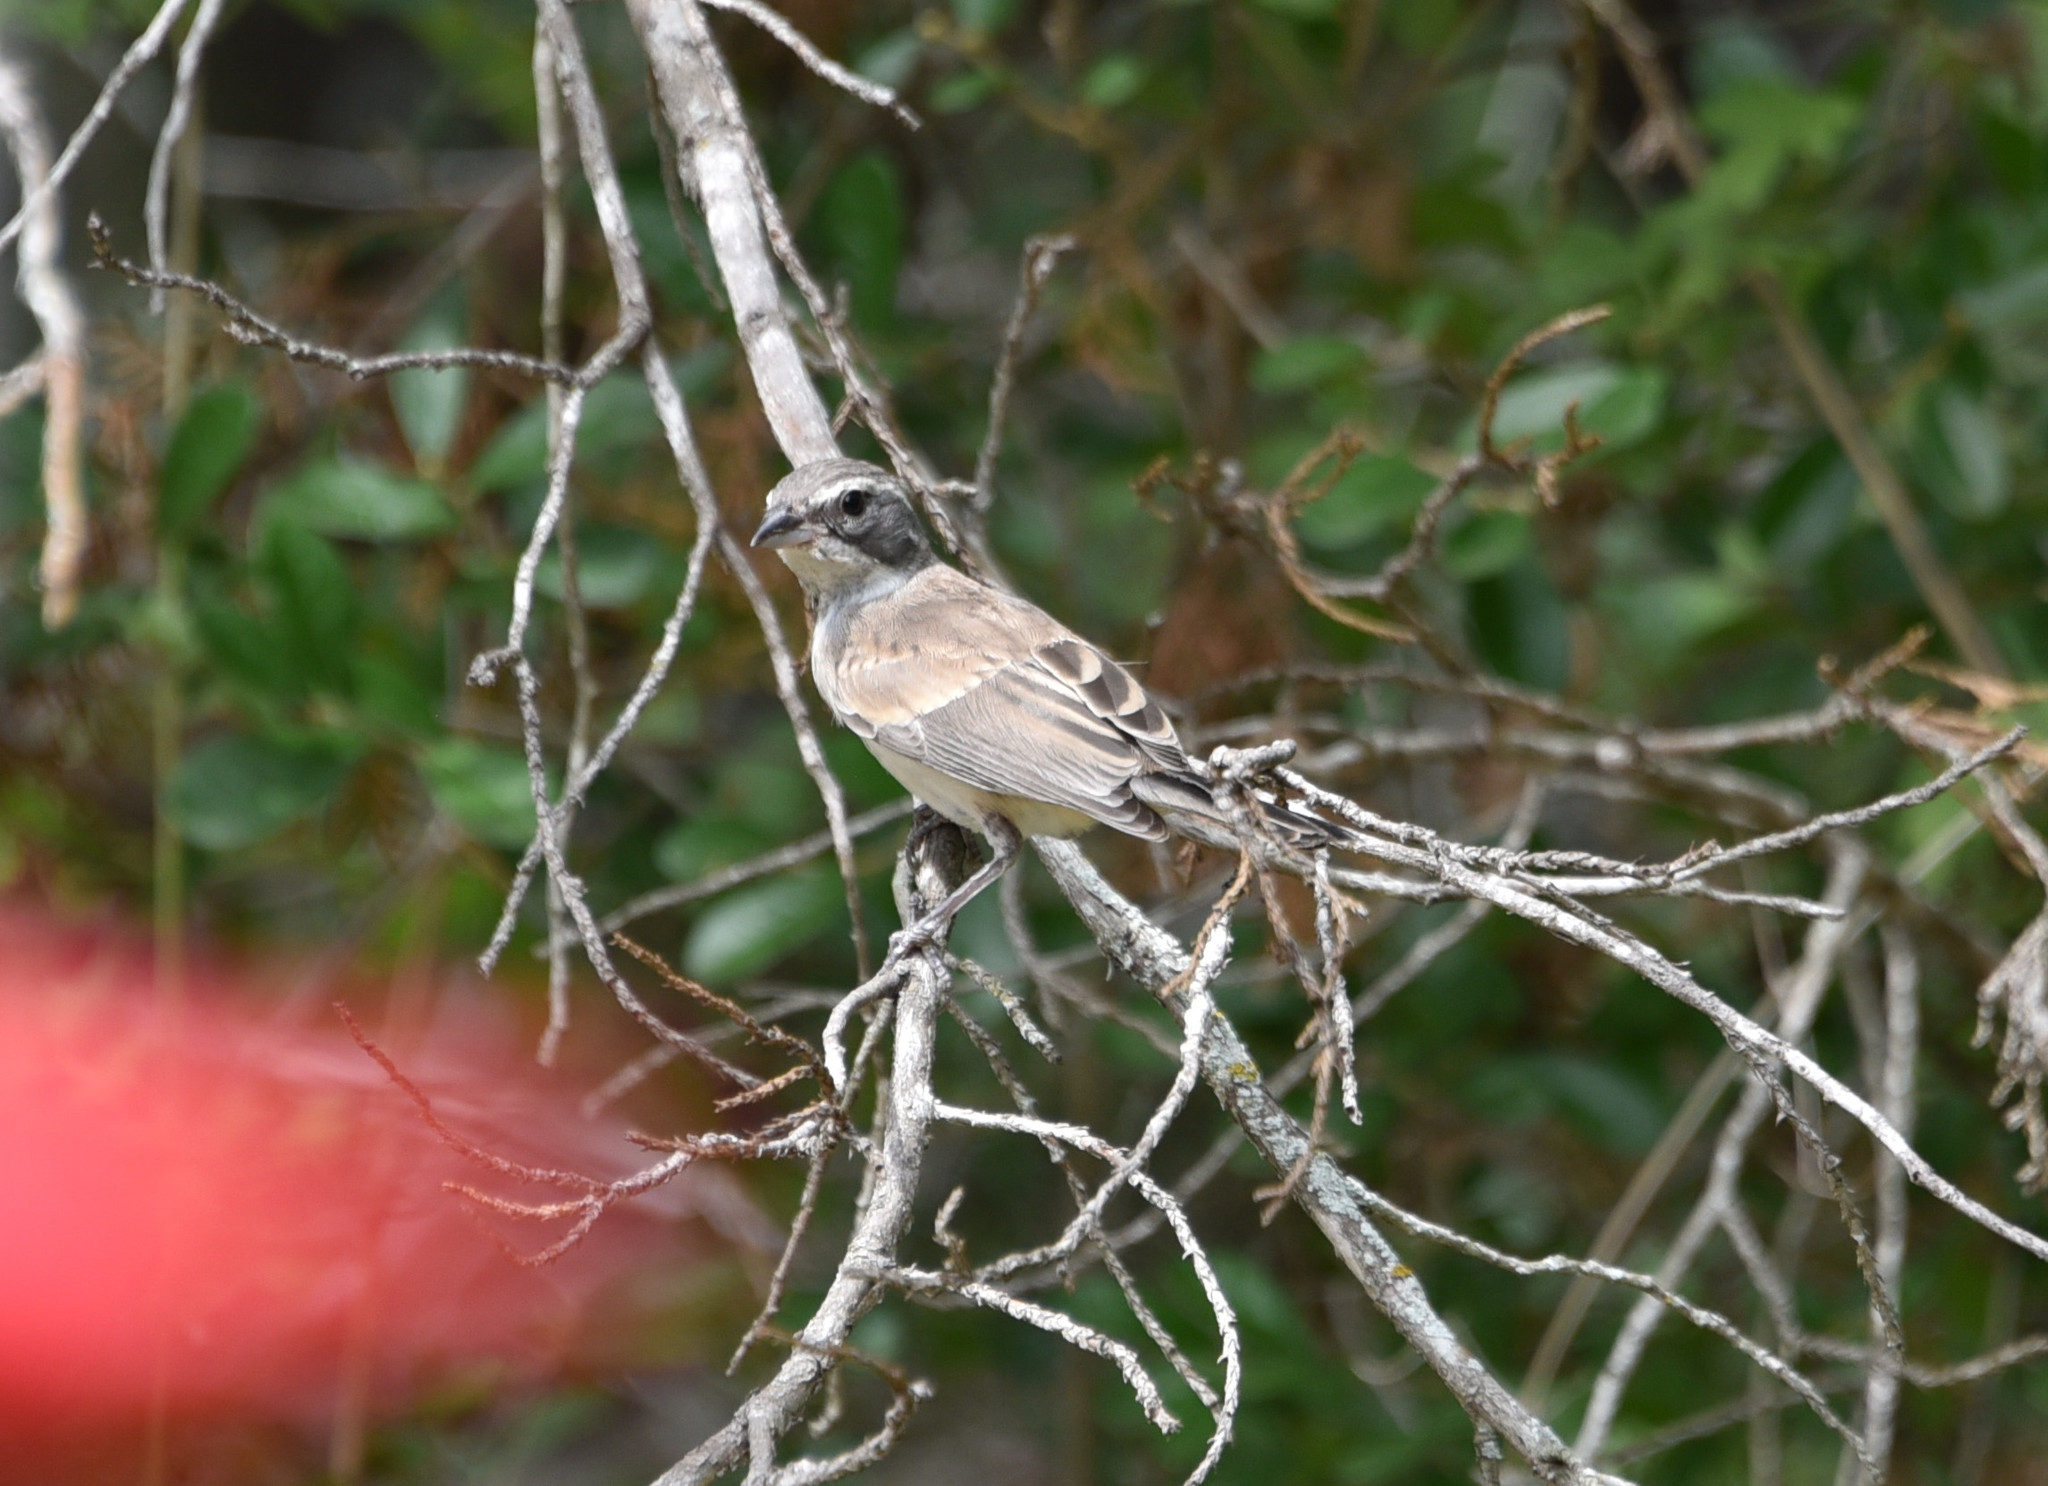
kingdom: Animalia
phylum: Chordata
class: Aves
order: Passeriformes
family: Passerellidae
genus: Amphispiza
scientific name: Amphispiza bilineata
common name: Black-throated sparrow
